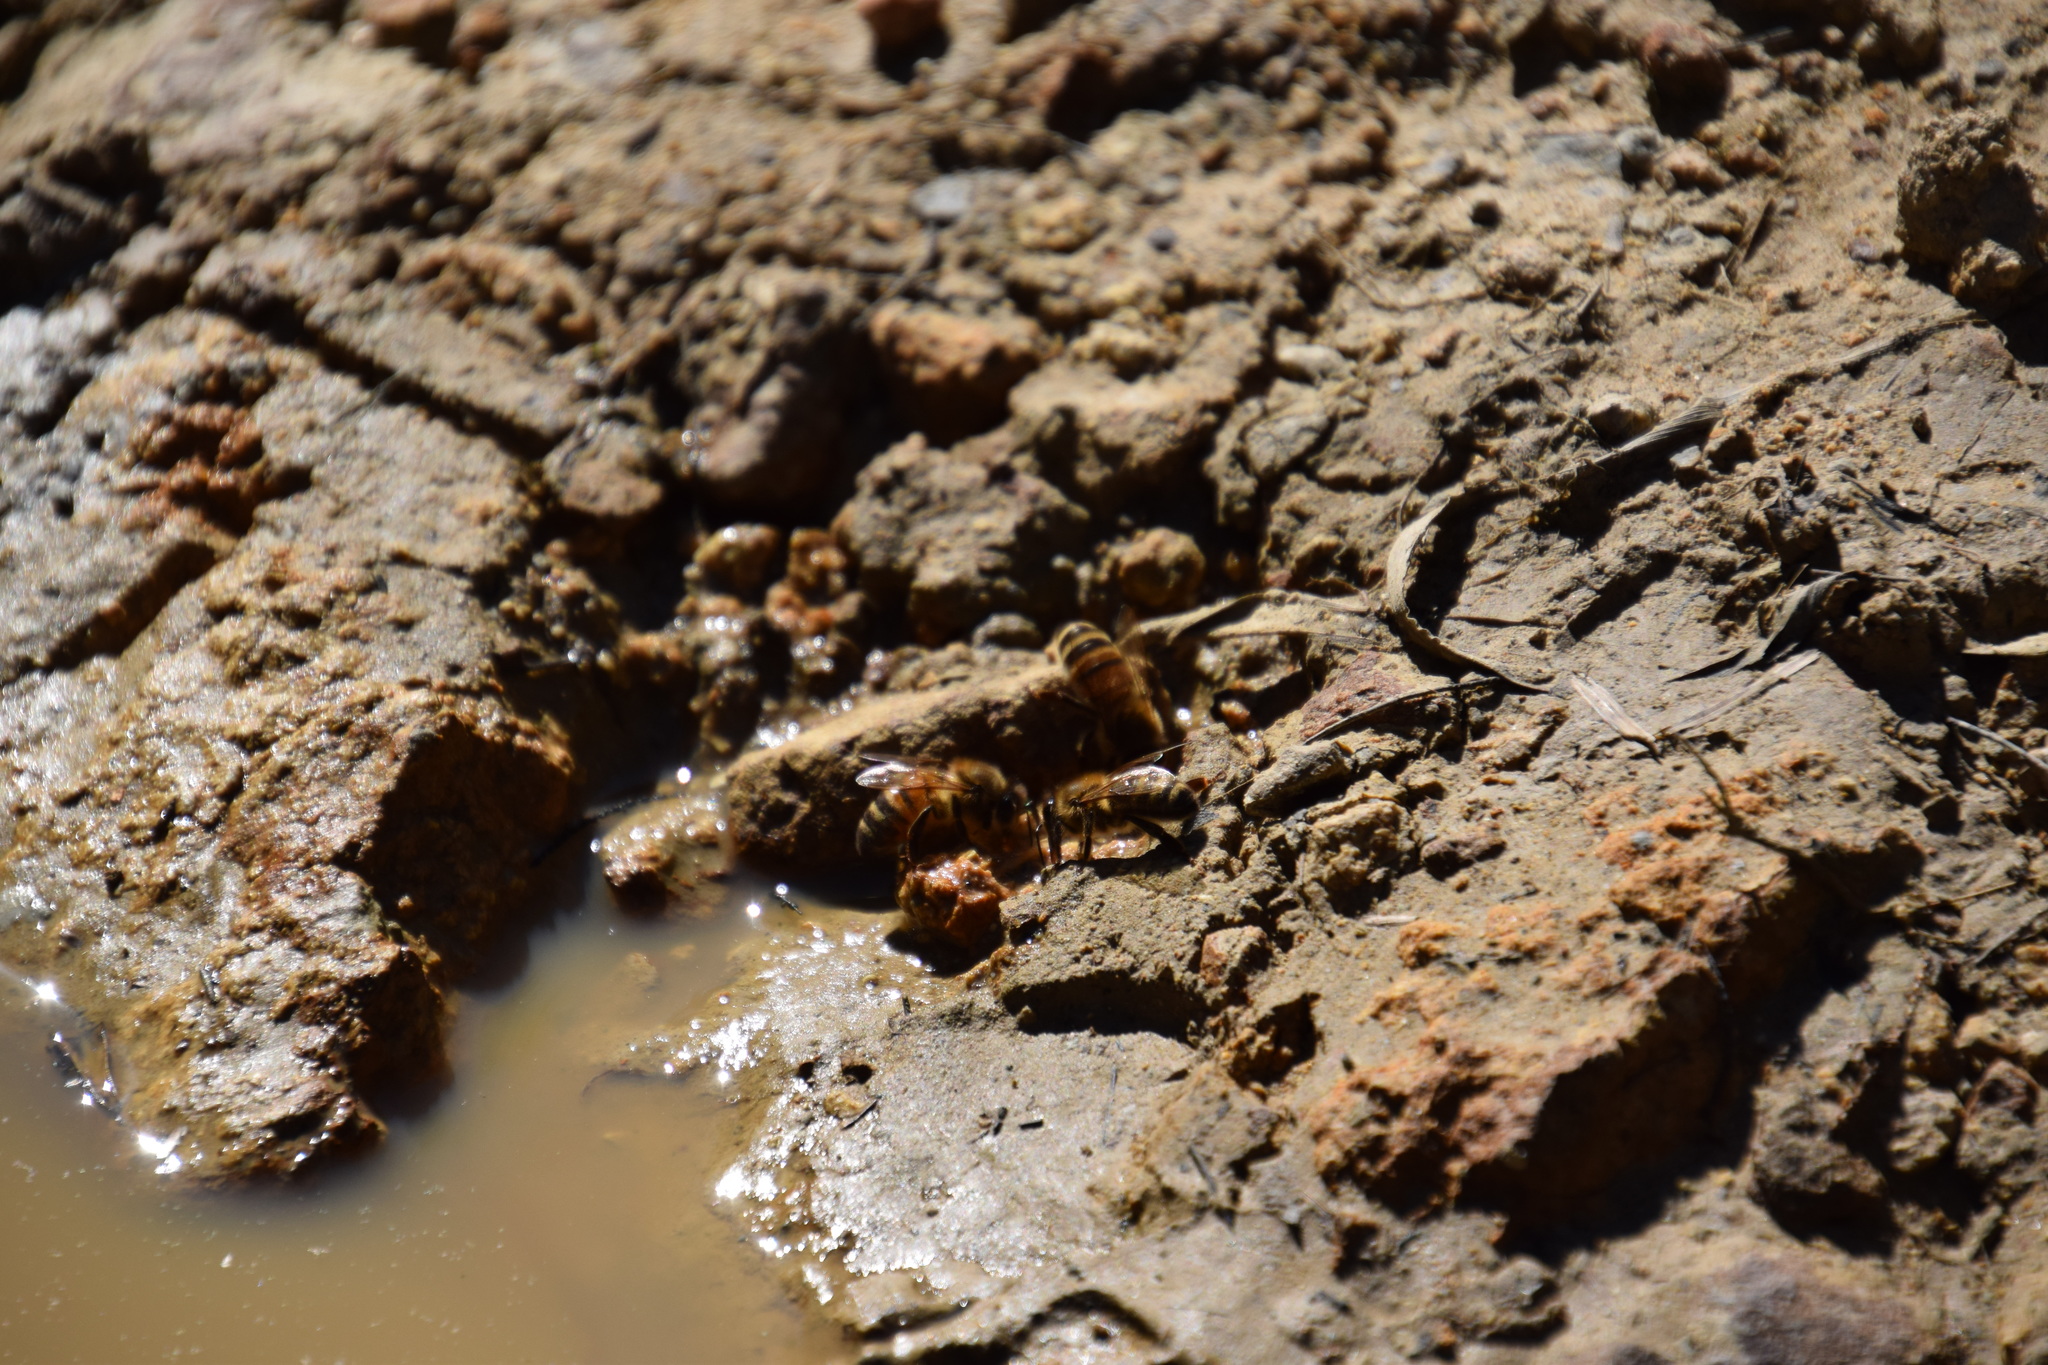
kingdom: Animalia
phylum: Arthropoda
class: Insecta
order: Hymenoptera
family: Apidae
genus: Apis
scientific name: Apis mellifera
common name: Honey bee
